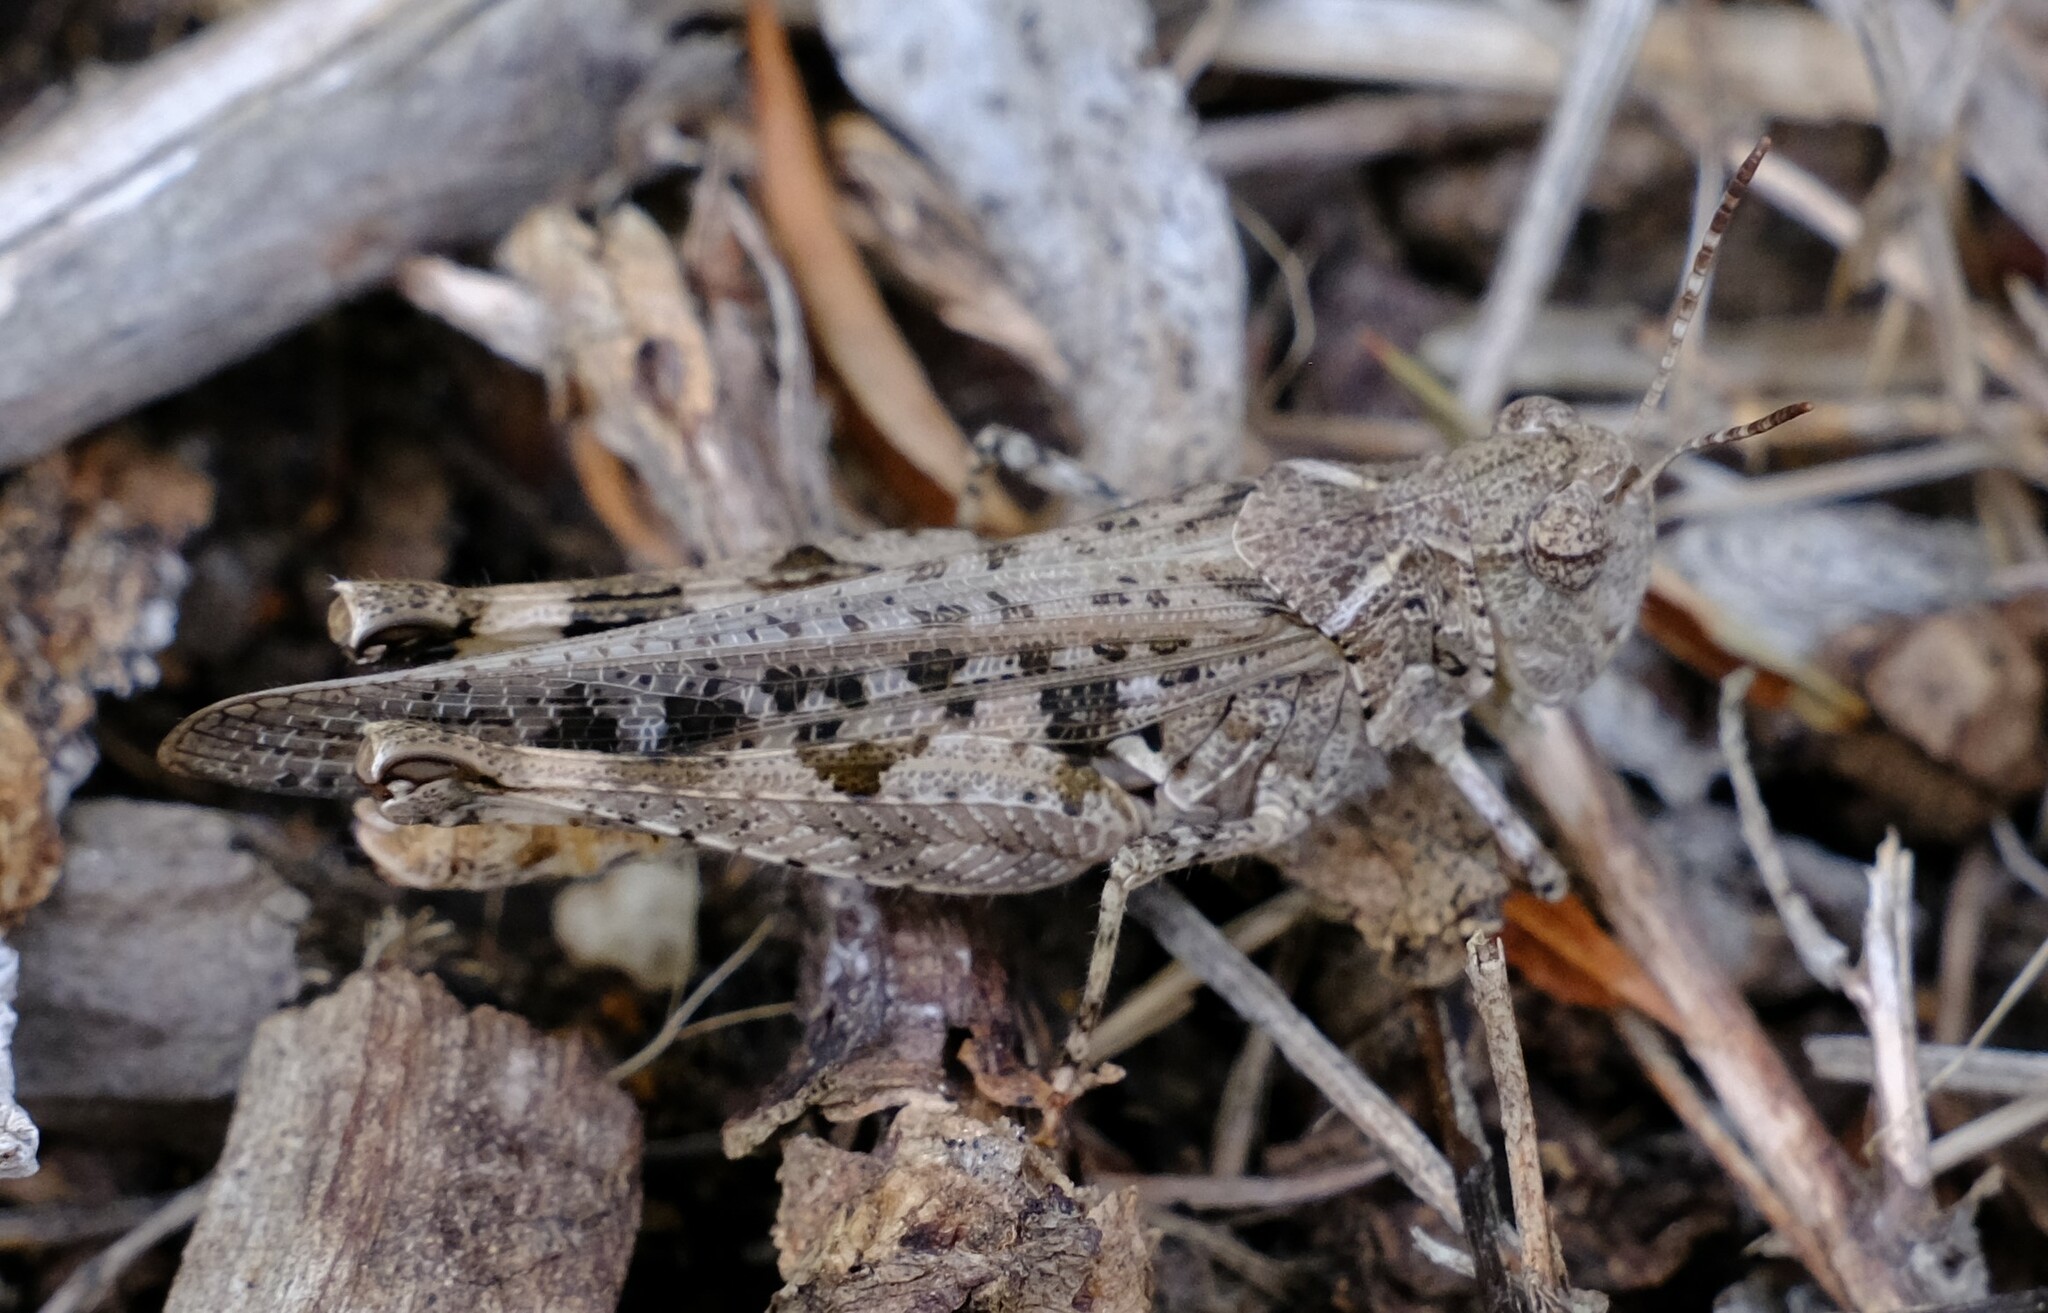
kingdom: Animalia
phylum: Arthropoda
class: Insecta
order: Orthoptera
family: Acrididae
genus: Chortoicetes
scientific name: Chortoicetes terminifera
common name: Australian plague locust
